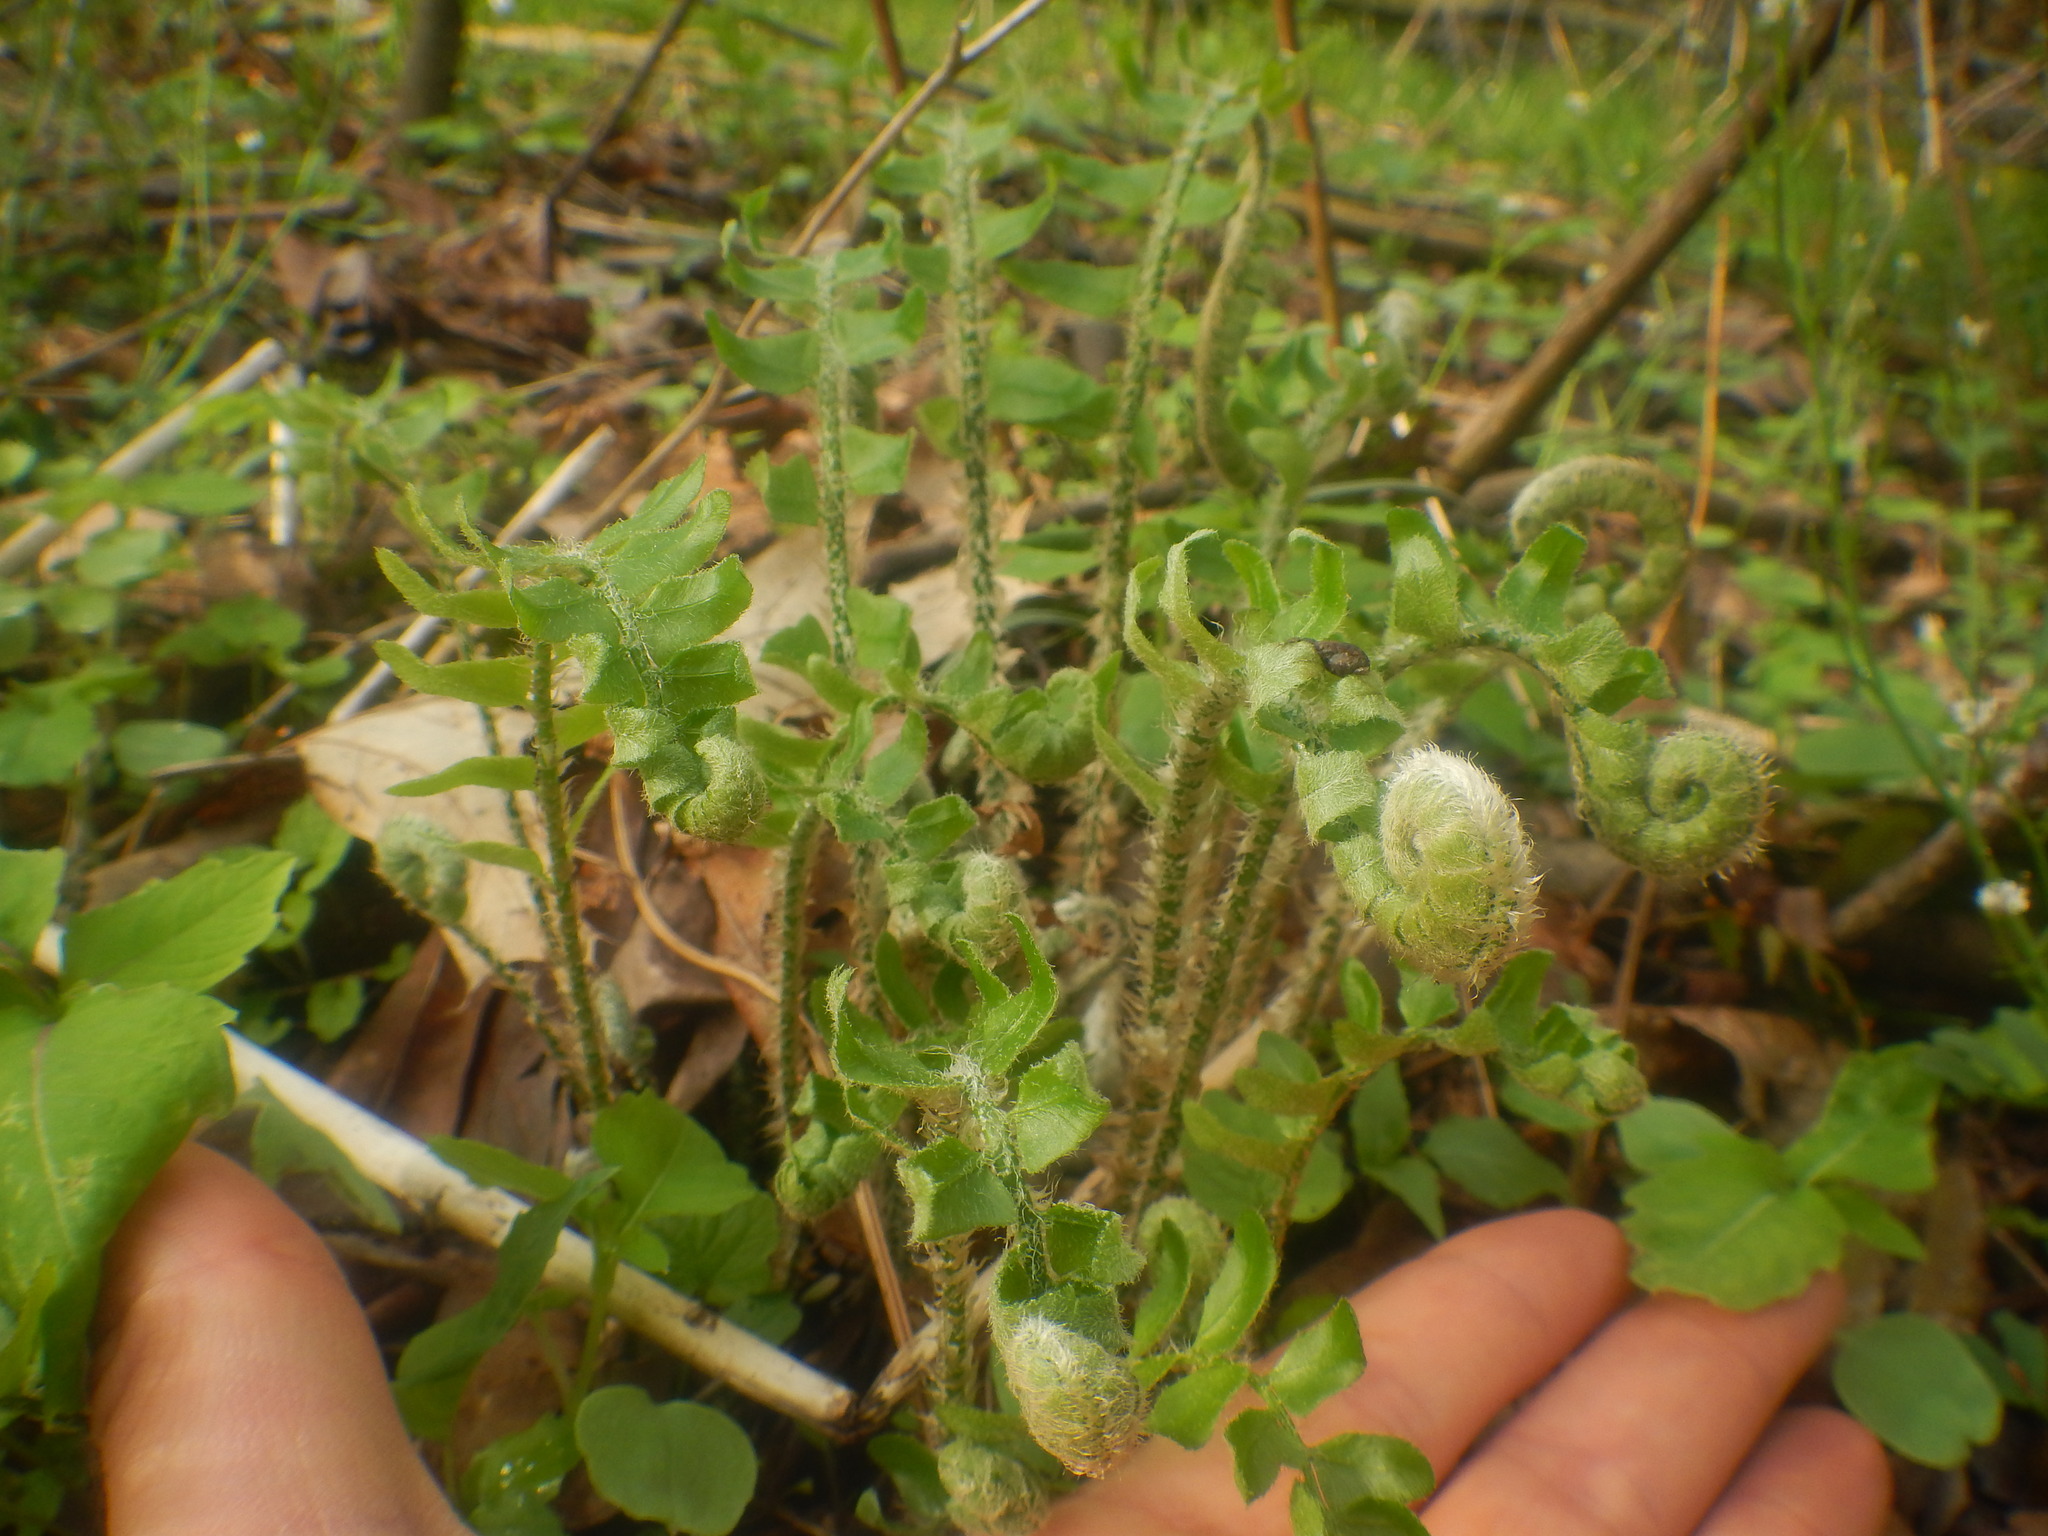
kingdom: Plantae
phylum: Tracheophyta
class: Polypodiopsida
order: Polypodiales
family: Dryopteridaceae
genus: Polystichum
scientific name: Polystichum acrostichoides
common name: Christmas fern
